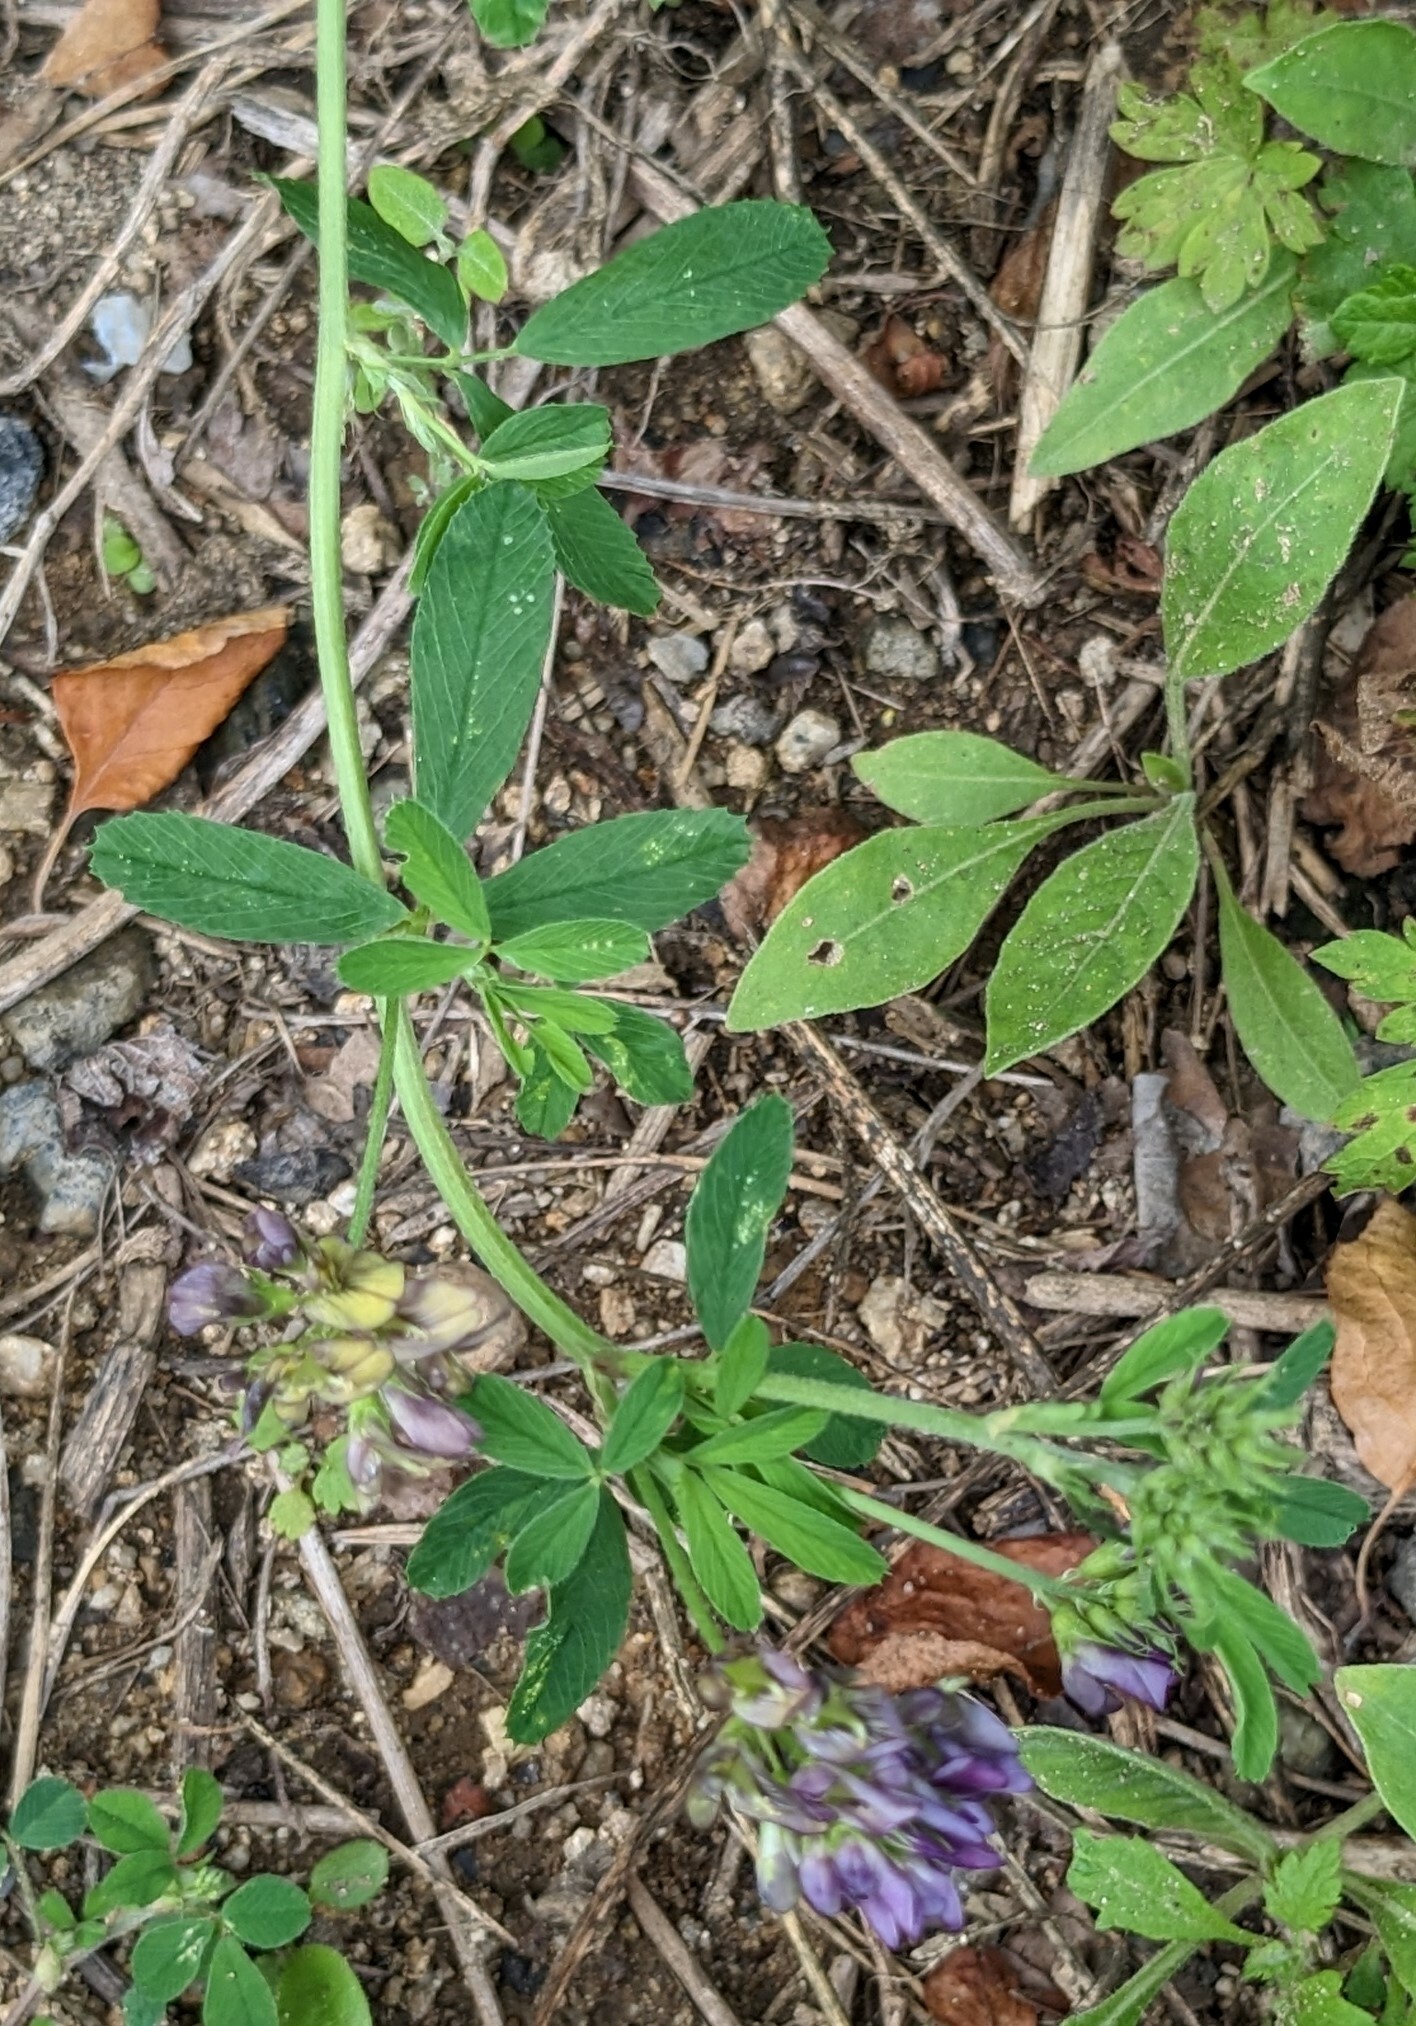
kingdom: Plantae
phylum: Tracheophyta
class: Magnoliopsida
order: Fabales
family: Fabaceae
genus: Medicago
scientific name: Medicago varia
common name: Sand lucerne
